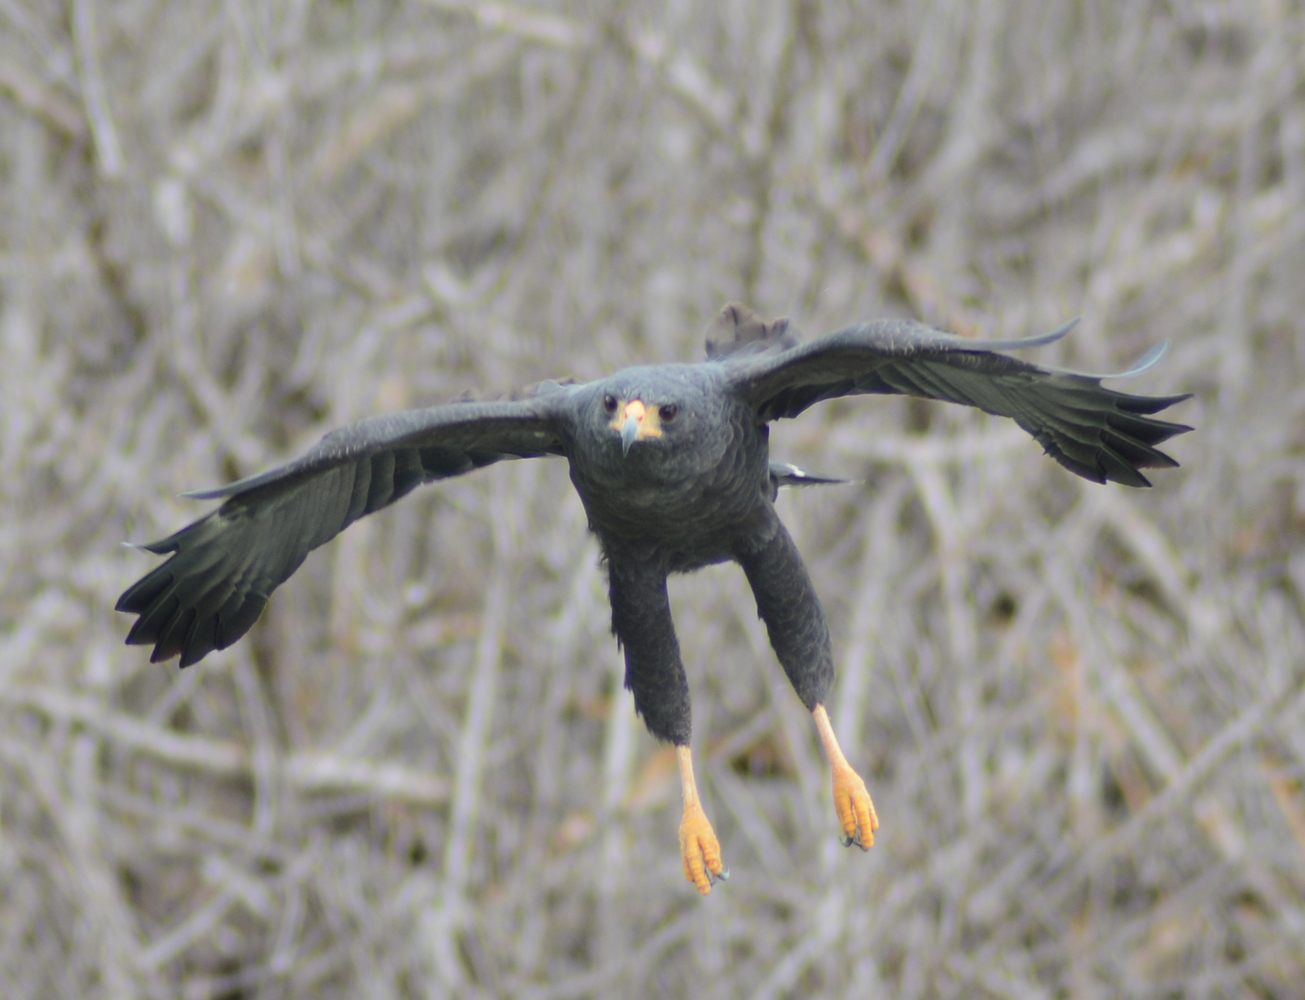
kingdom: Animalia
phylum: Chordata
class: Aves
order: Accipitriformes
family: Accipitridae
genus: Buteogallus
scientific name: Buteogallus anthracinus
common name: Common black hawk
